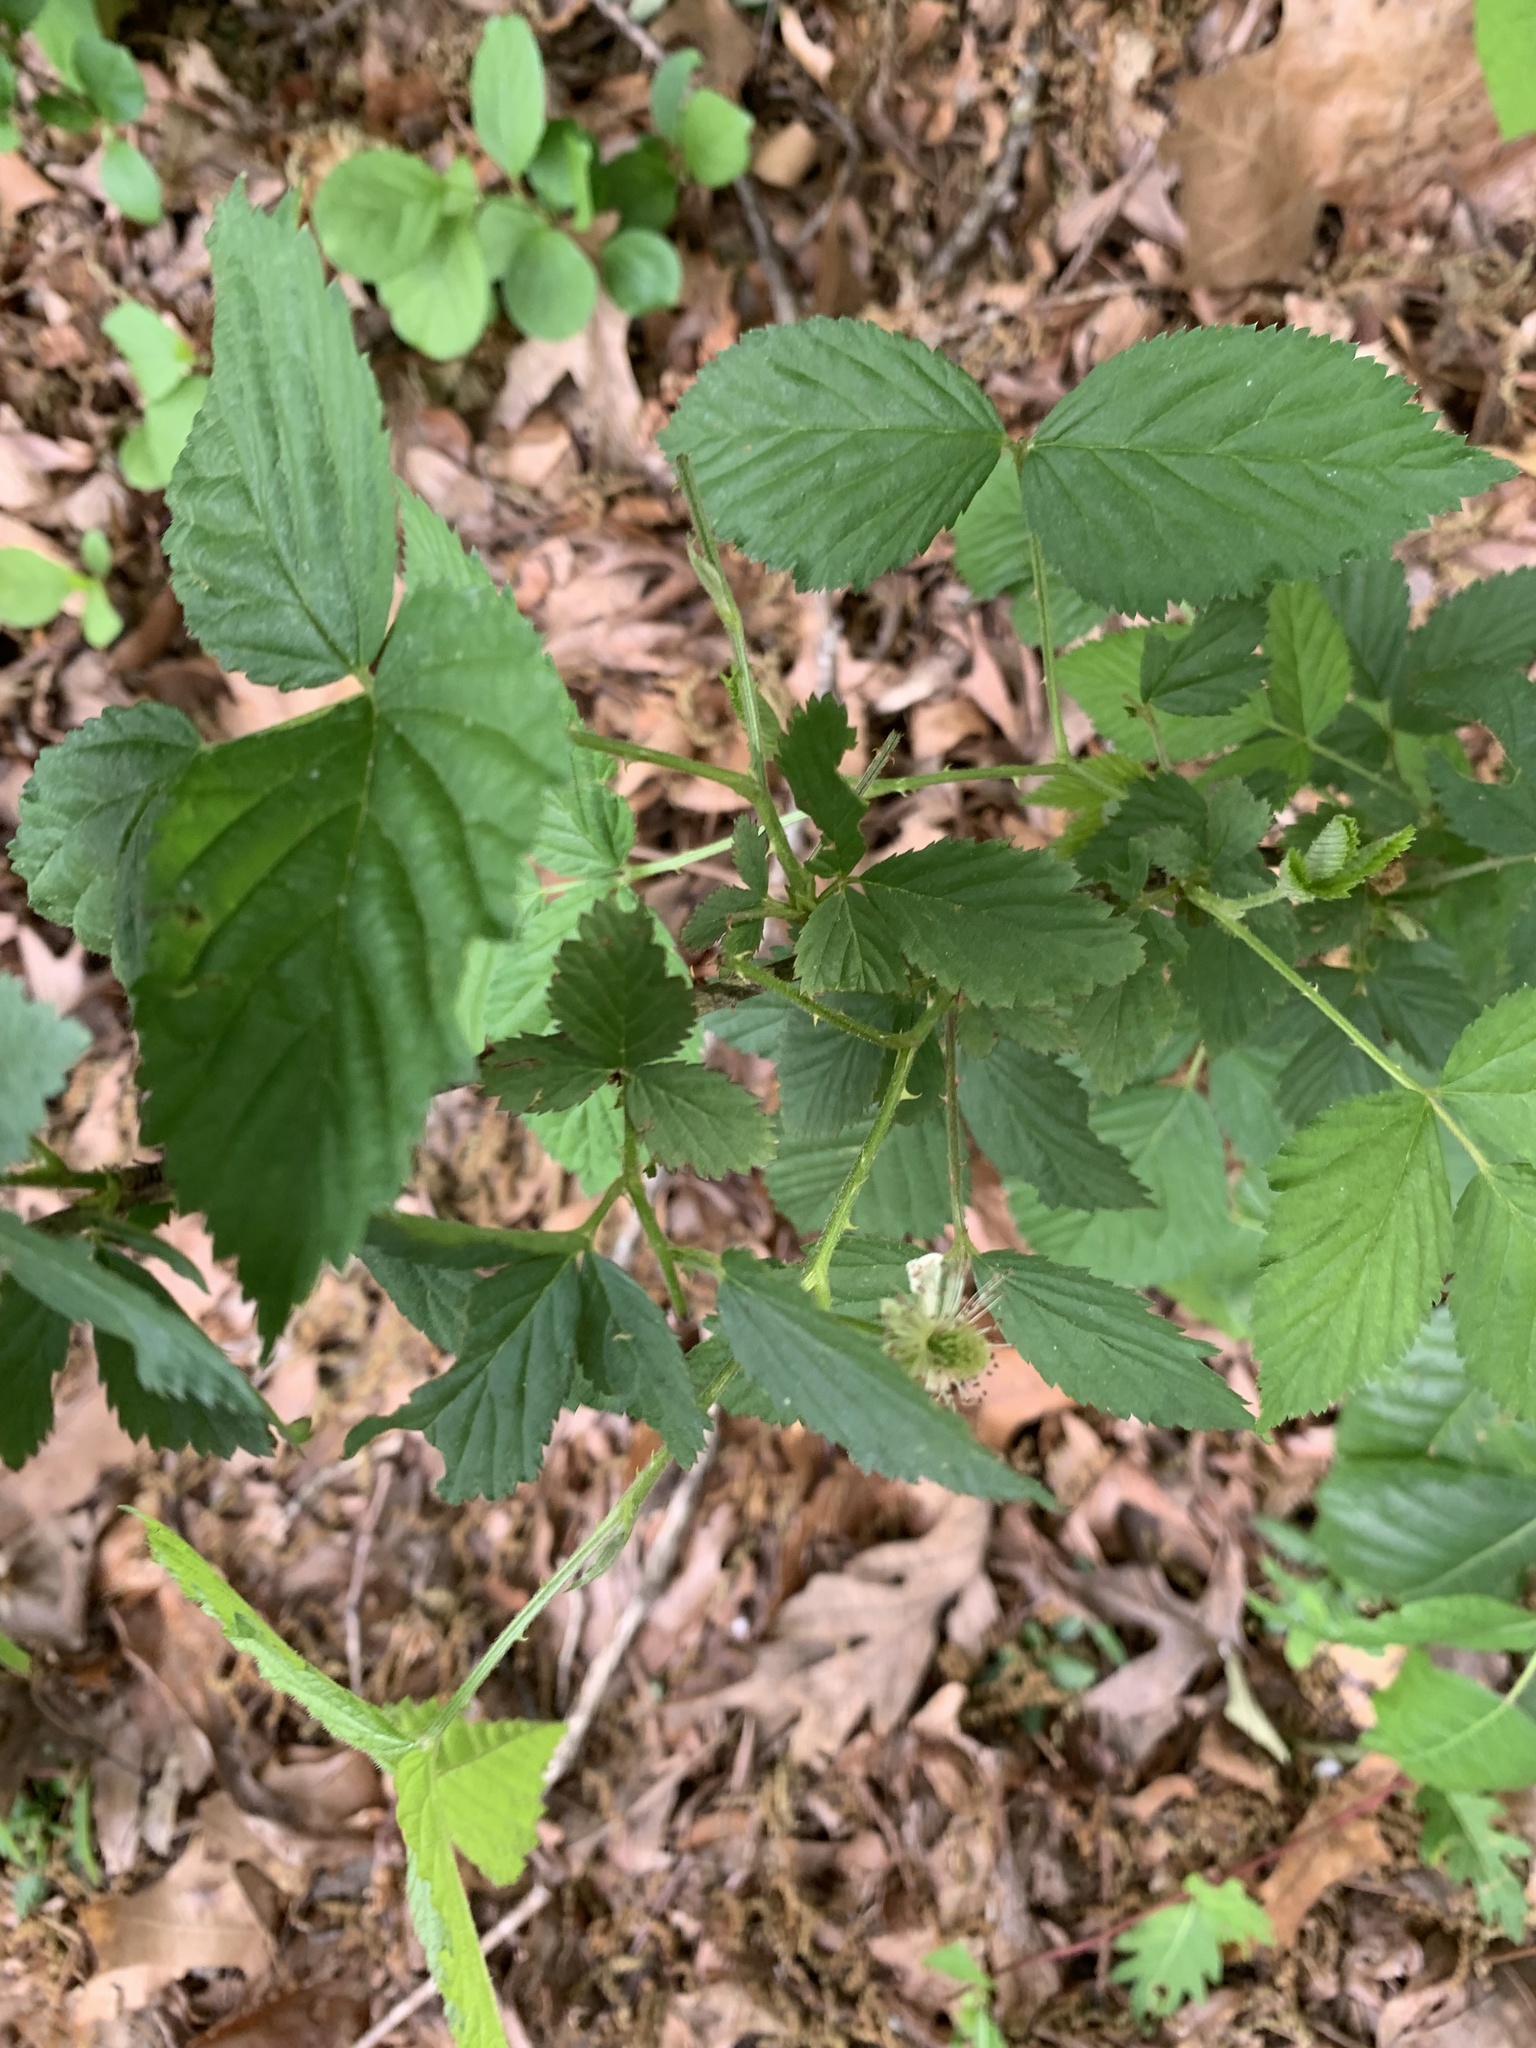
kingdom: Plantae
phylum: Tracheophyta
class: Magnoliopsida
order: Rosales
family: Rosaceae
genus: Rubus
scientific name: Rubus pensilvanicus
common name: Pennsylvania blackberry
